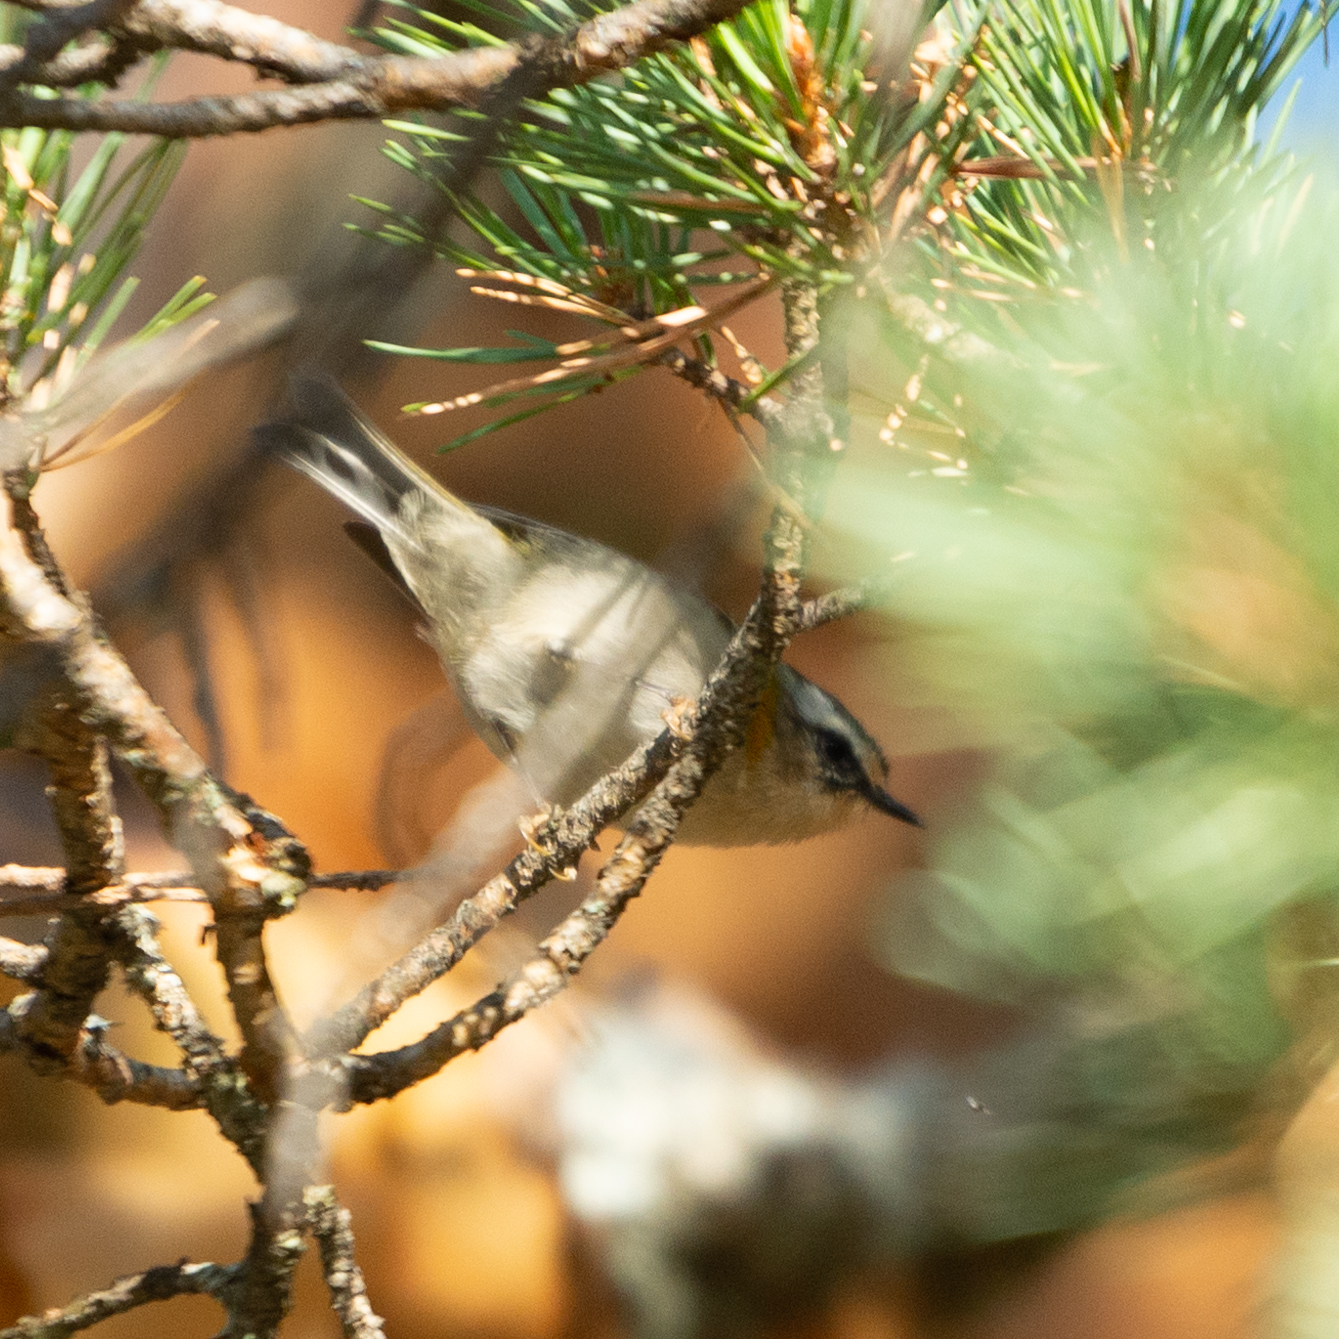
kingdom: Animalia
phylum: Chordata
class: Aves
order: Passeriformes
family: Regulidae
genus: Regulus
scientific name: Regulus ignicapilla
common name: Firecrest
